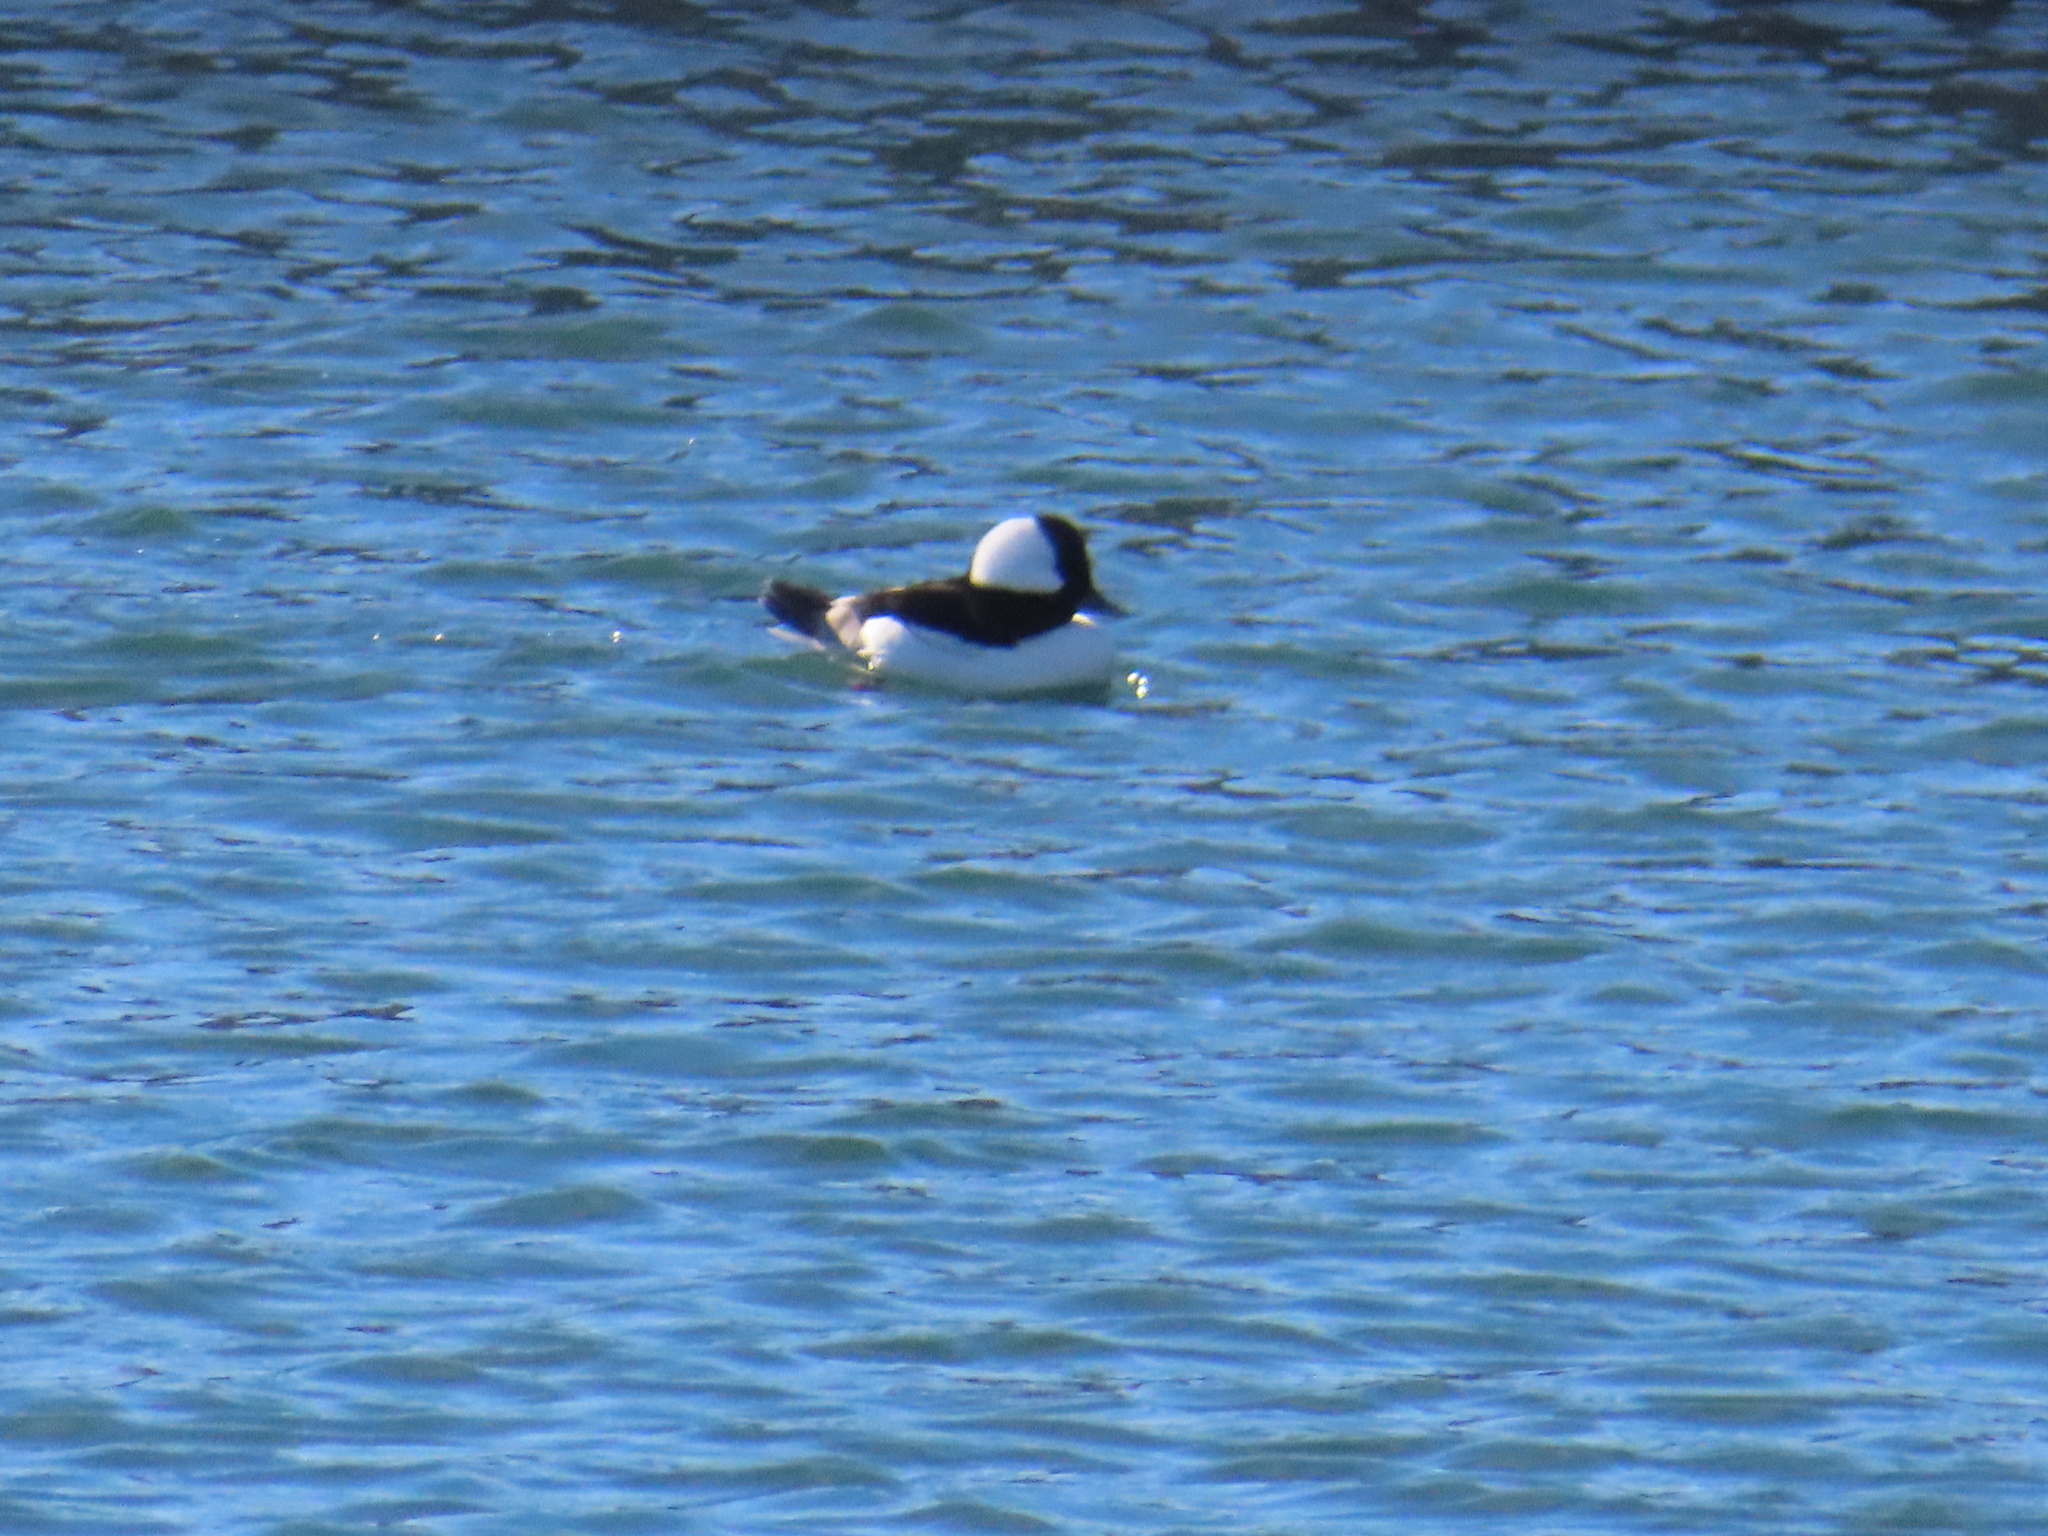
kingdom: Animalia
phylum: Chordata
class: Aves
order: Anseriformes
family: Anatidae
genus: Bucephala
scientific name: Bucephala albeola
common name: Bufflehead
